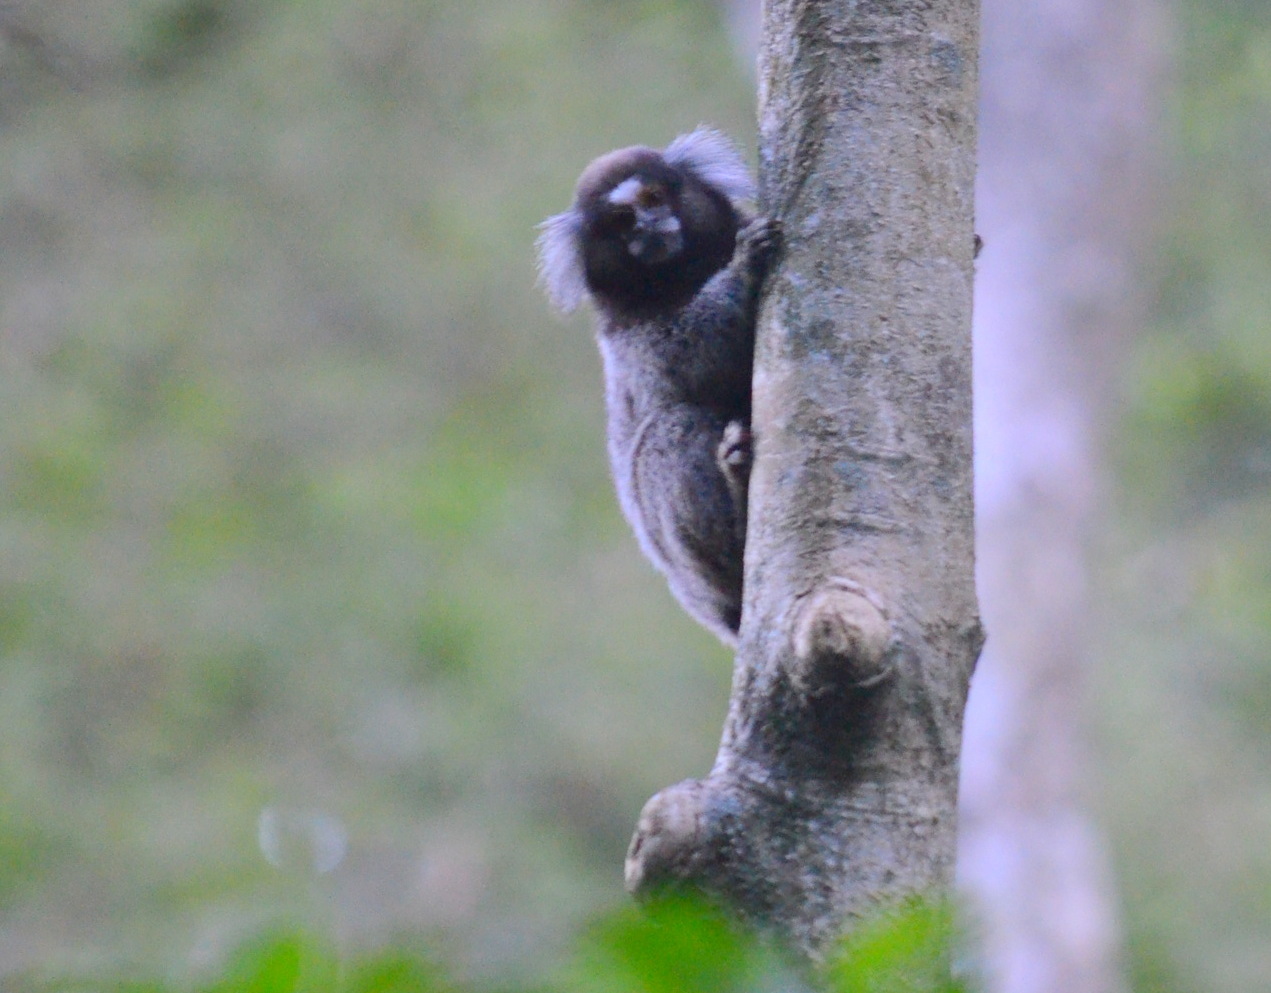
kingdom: Animalia
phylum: Chordata
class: Mammalia
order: Primates
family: Callitrichidae
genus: Callithrix
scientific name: Callithrix jacchus
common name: Common marmoset
